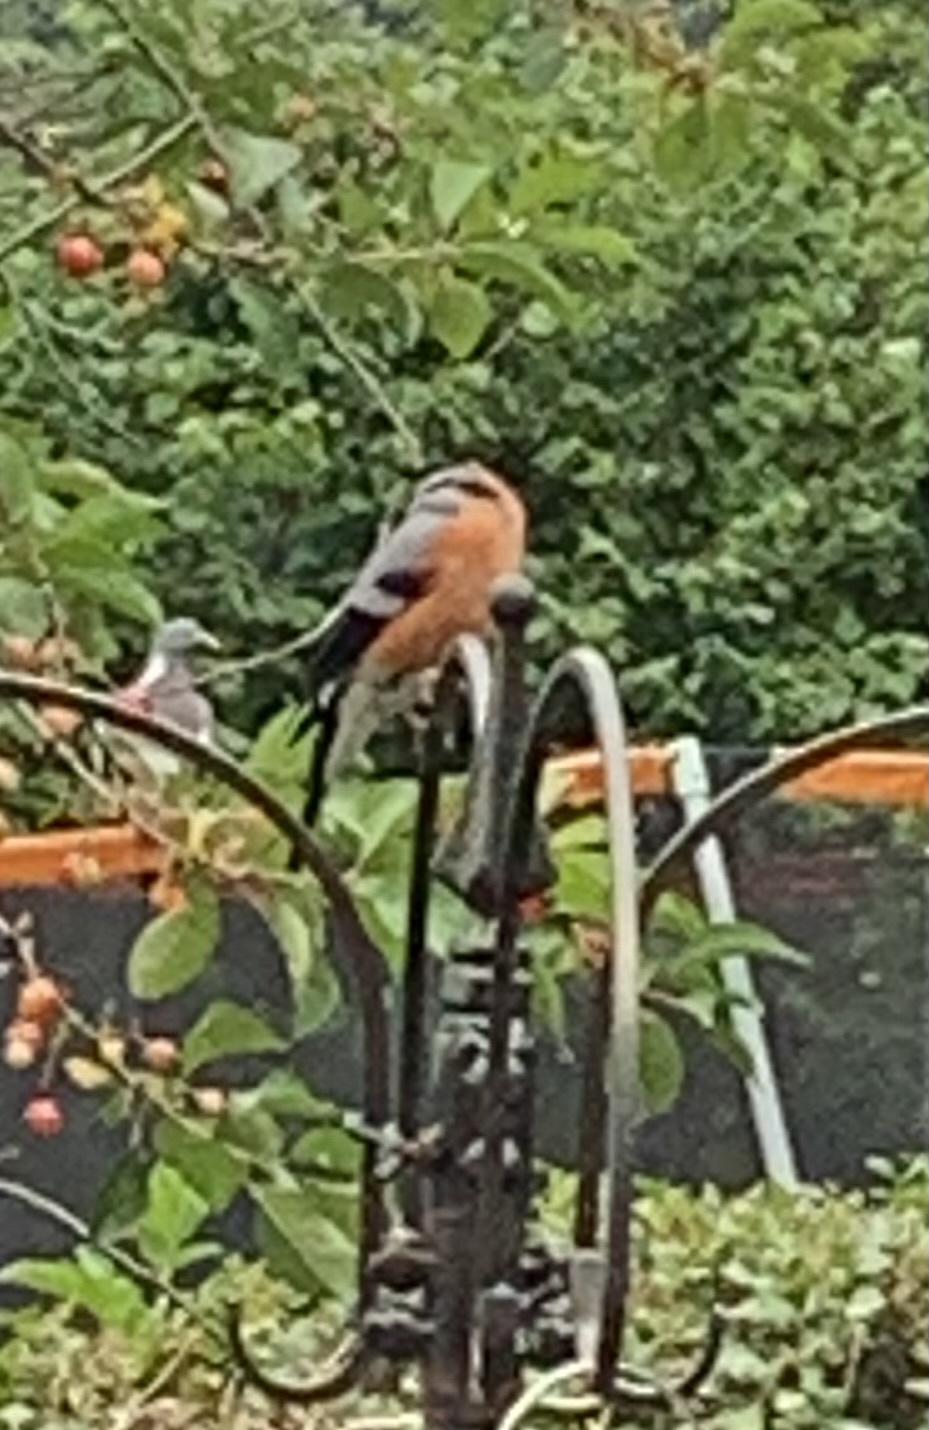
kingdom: Animalia
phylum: Chordata
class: Aves
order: Passeriformes
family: Fringillidae
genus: Pyrrhula
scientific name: Pyrrhula pyrrhula
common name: Eurasian bullfinch
